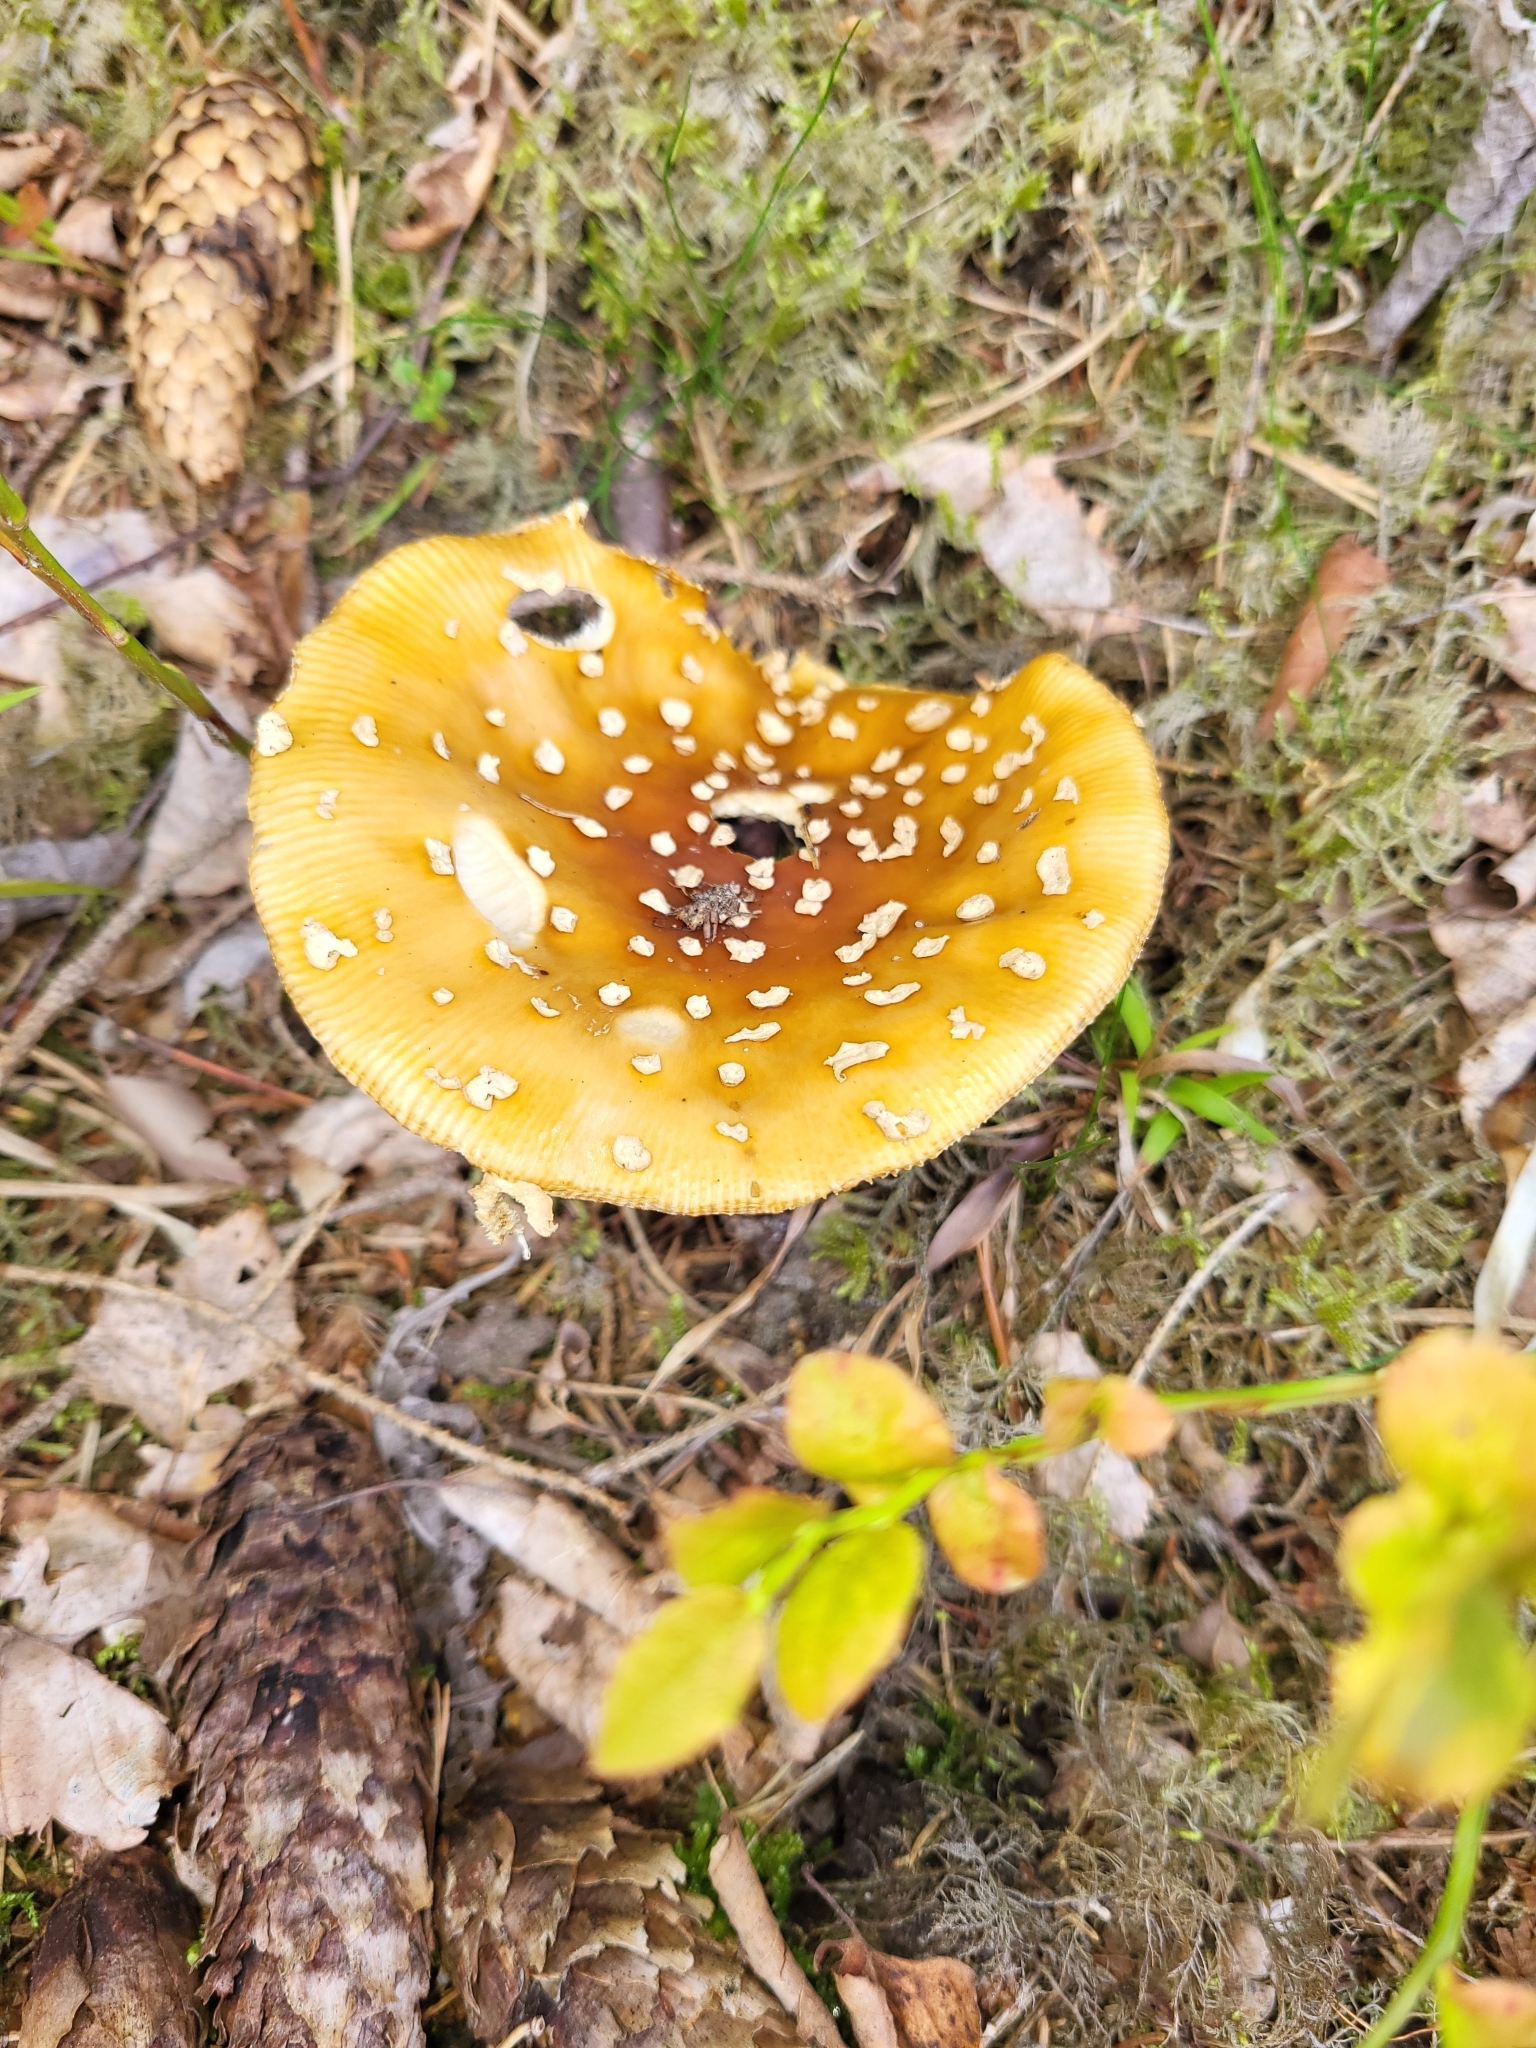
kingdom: Fungi
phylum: Basidiomycota
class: Agaricomycetes
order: Agaricales
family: Amanitaceae
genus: Amanita
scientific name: Amanita regalis
